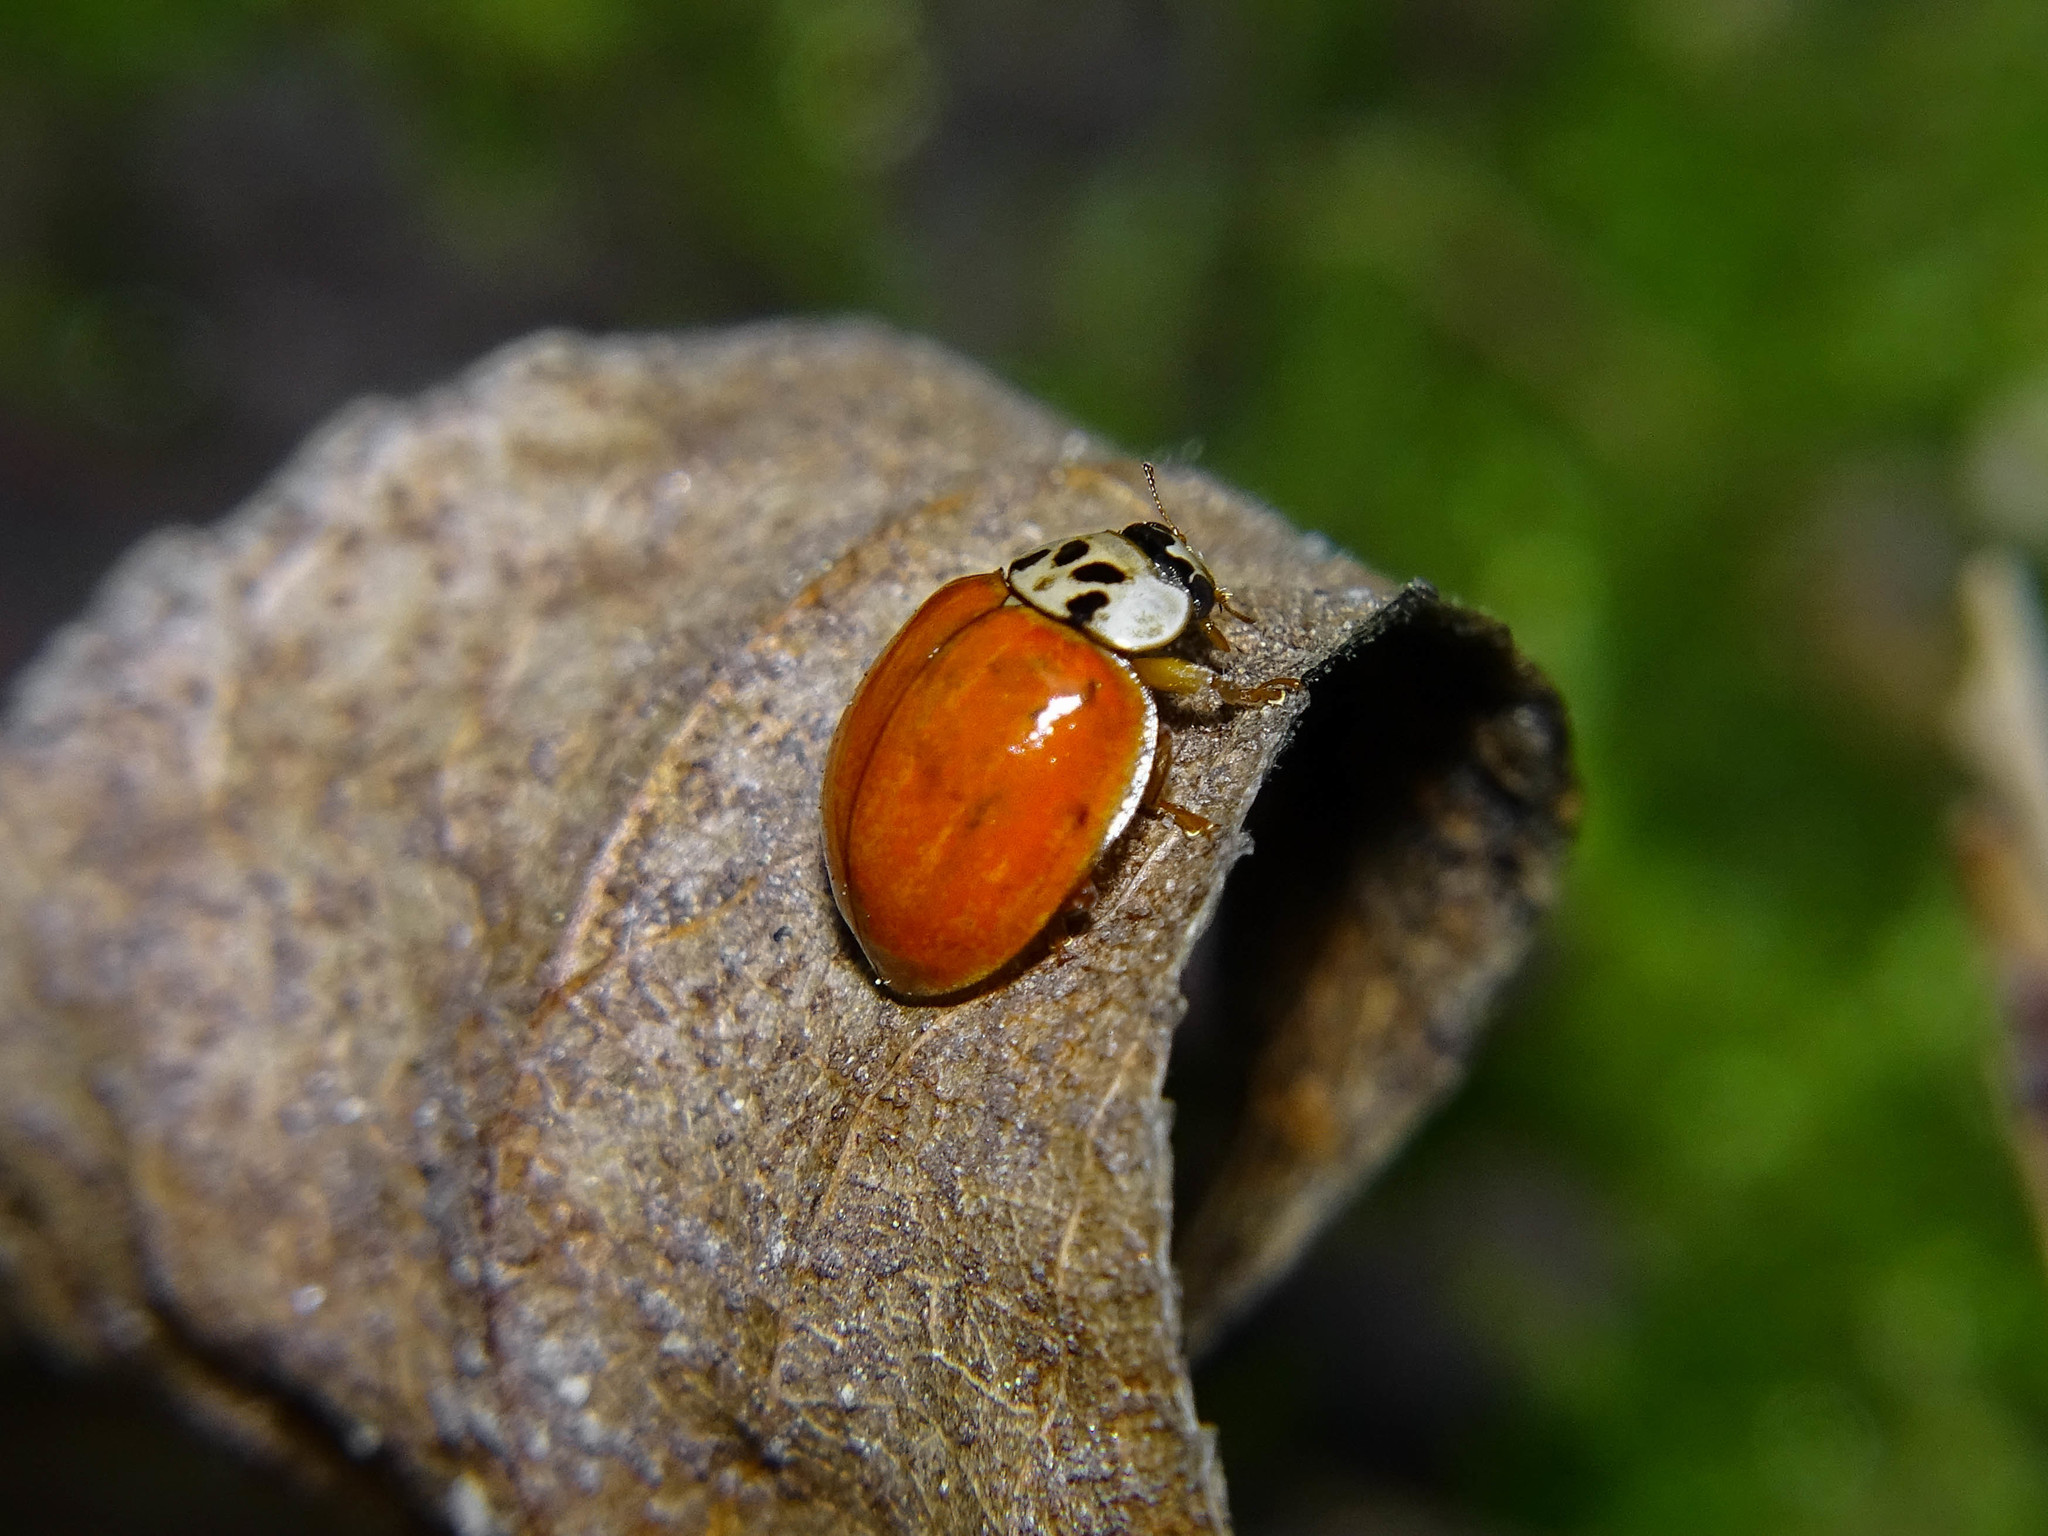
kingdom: Animalia
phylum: Arthropoda
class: Insecta
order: Coleoptera
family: Coccinellidae
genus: Harmonia
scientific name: Harmonia axyridis
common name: Harlequin ladybird
